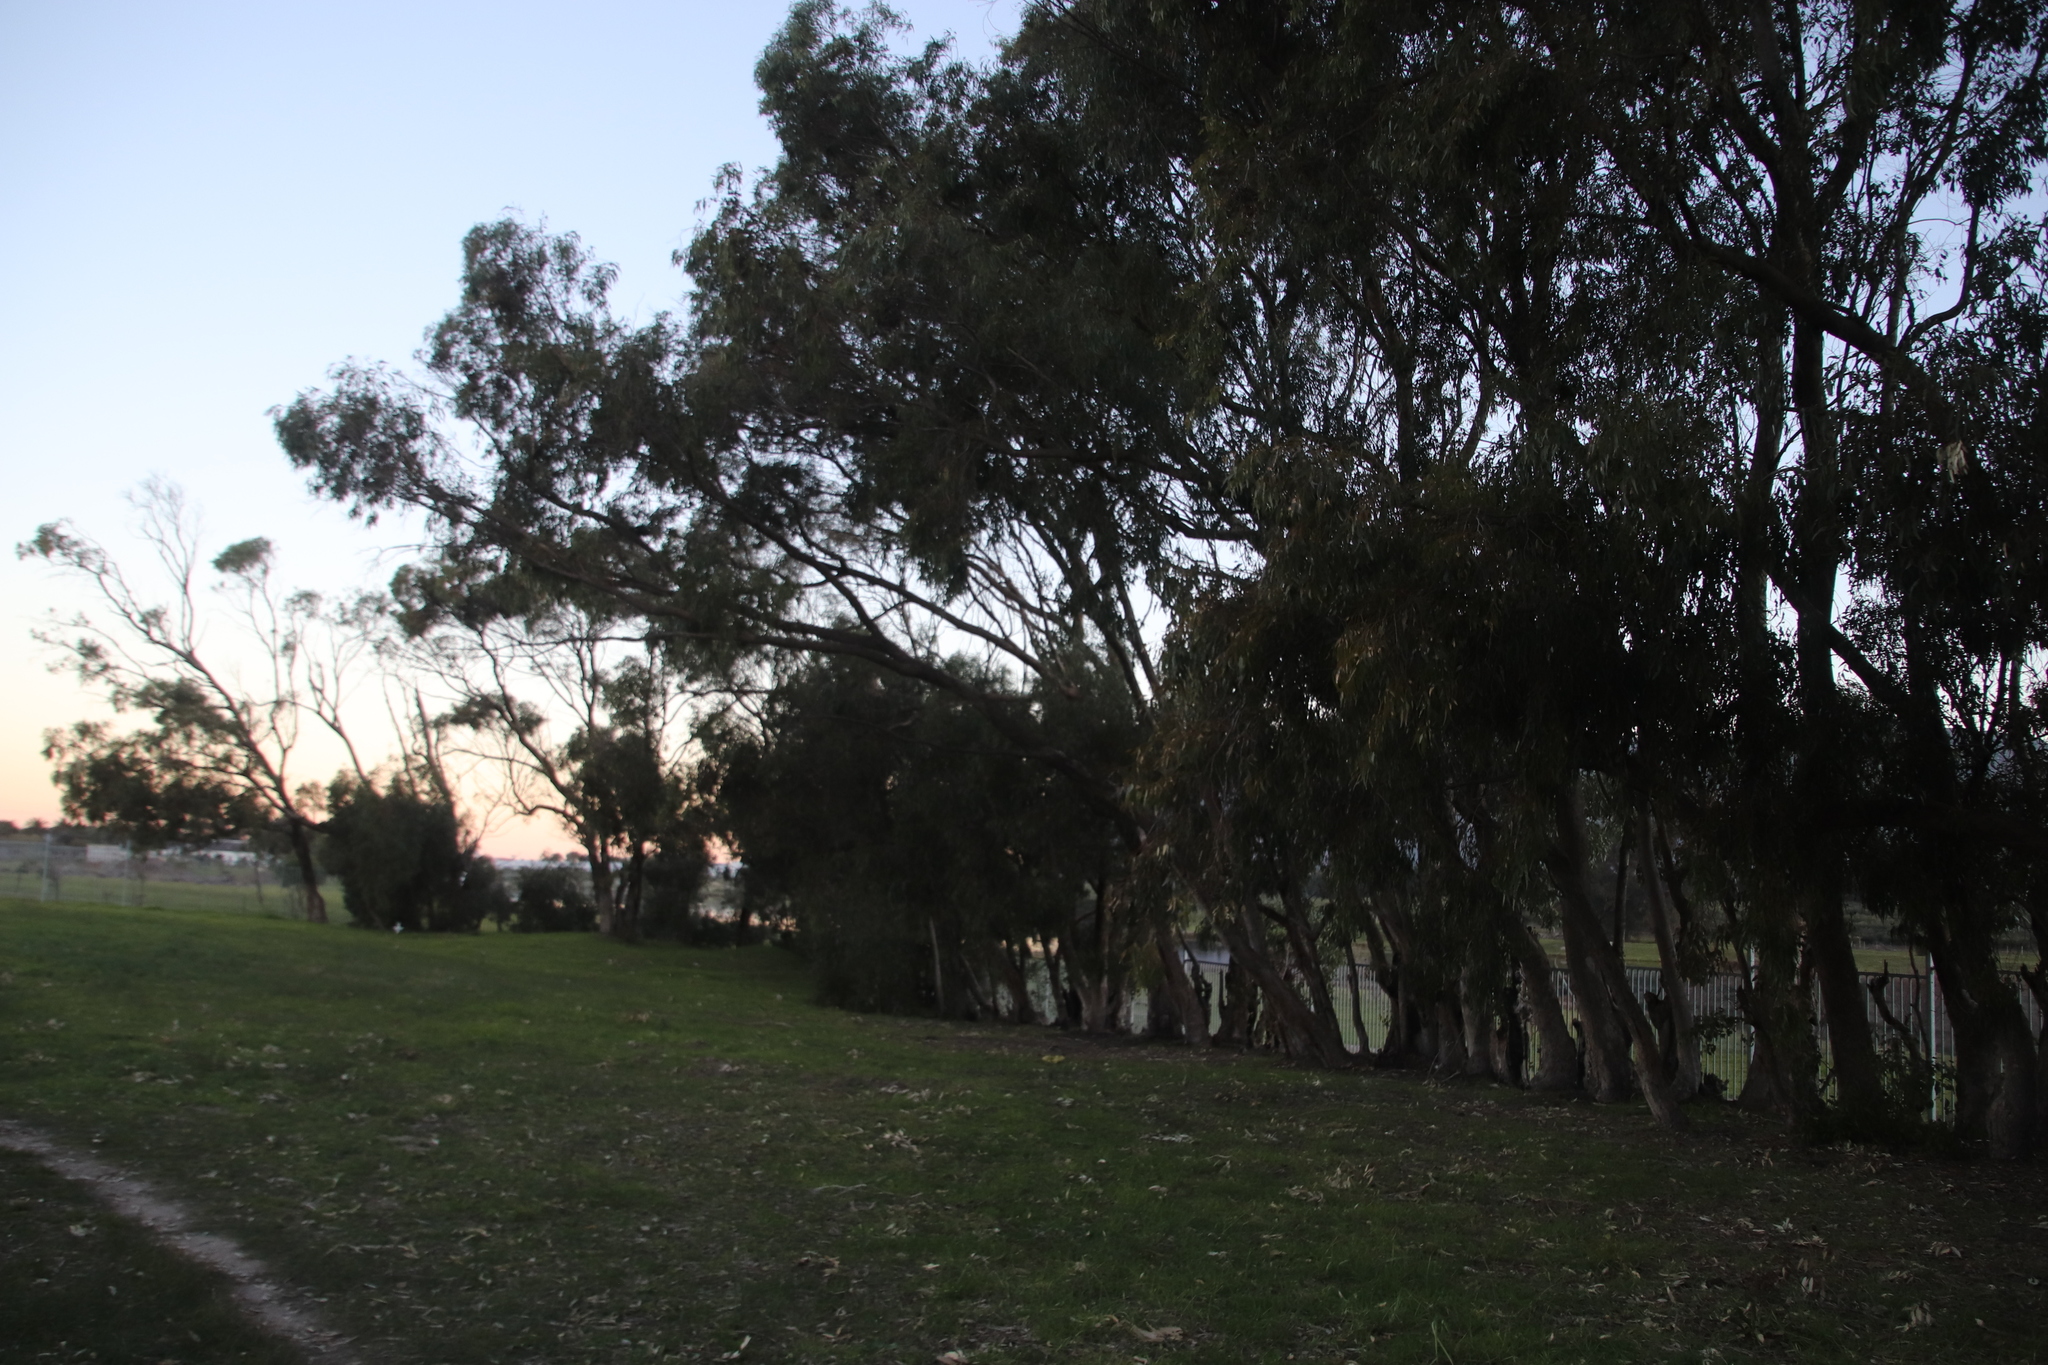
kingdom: Plantae
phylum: Tracheophyta
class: Magnoliopsida
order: Myrtales
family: Myrtaceae
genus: Eucalyptus
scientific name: Eucalyptus gomphocephala
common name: Tuart
